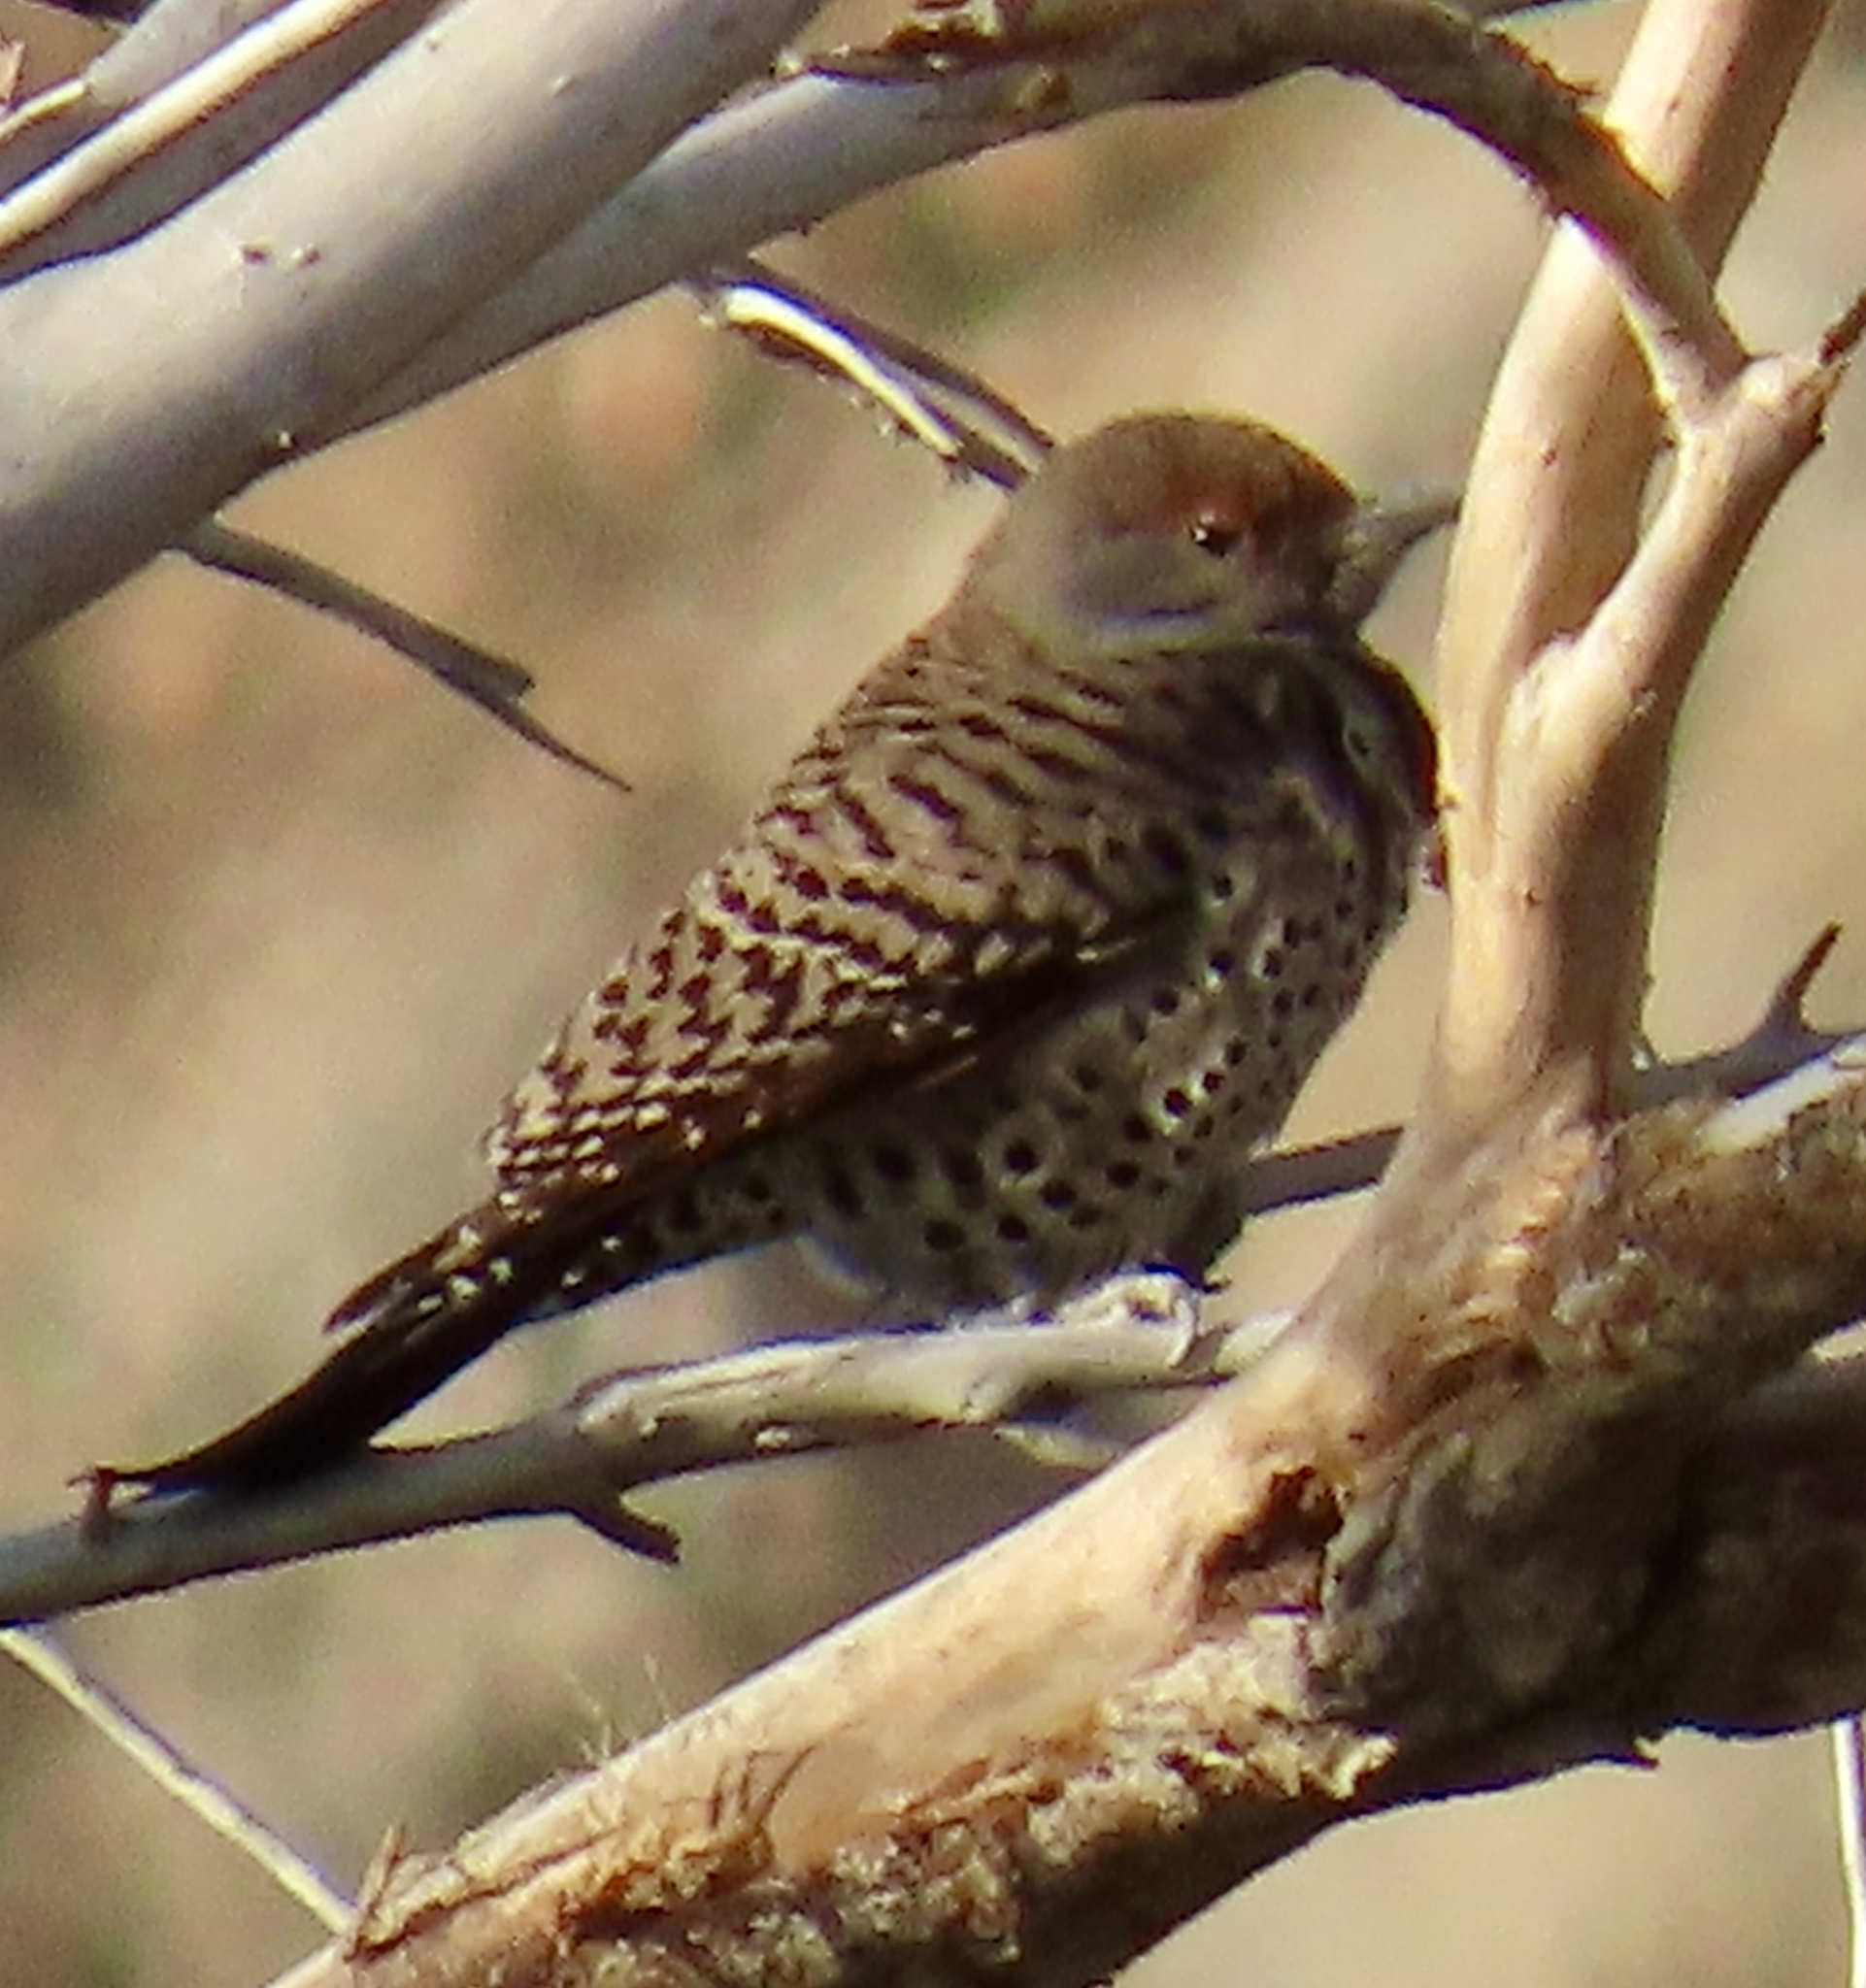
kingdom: Animalia
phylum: Chordata
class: Aves
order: Piciformes
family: Picidae
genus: Colaptes
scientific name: Colaptes auratus
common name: Northern flicker
